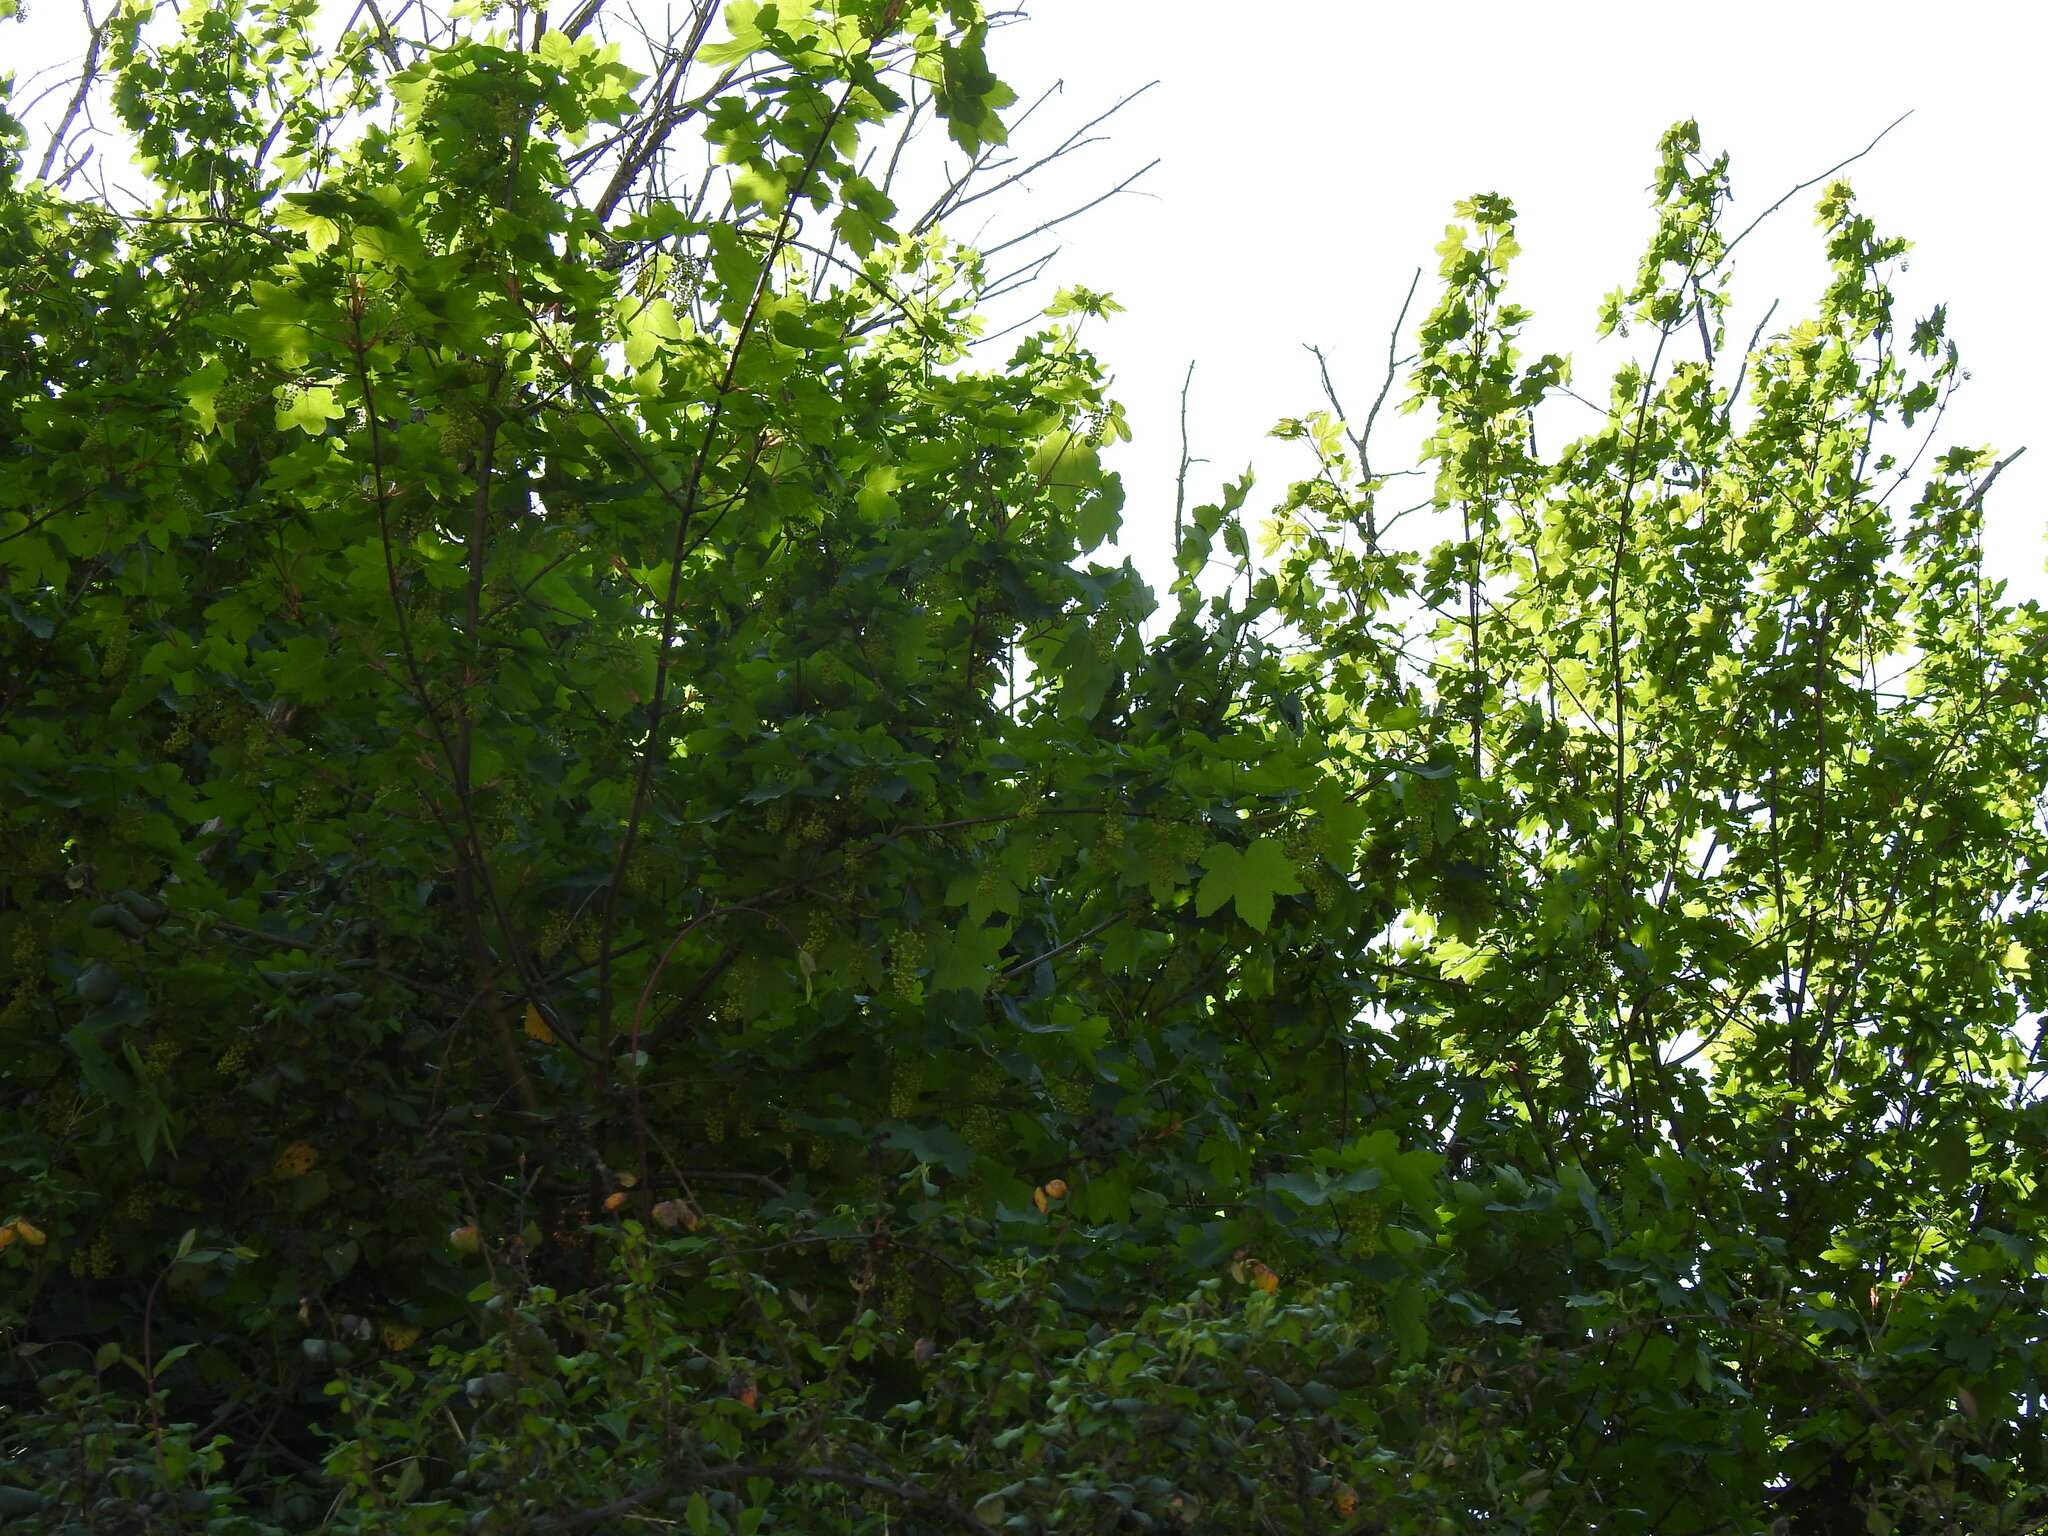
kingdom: Plantae
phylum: Tracheophyta
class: Magnoliopsida
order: Sapindales
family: Sapindaceae
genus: Acer
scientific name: Acer pseudoplatanus
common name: Sycamore
